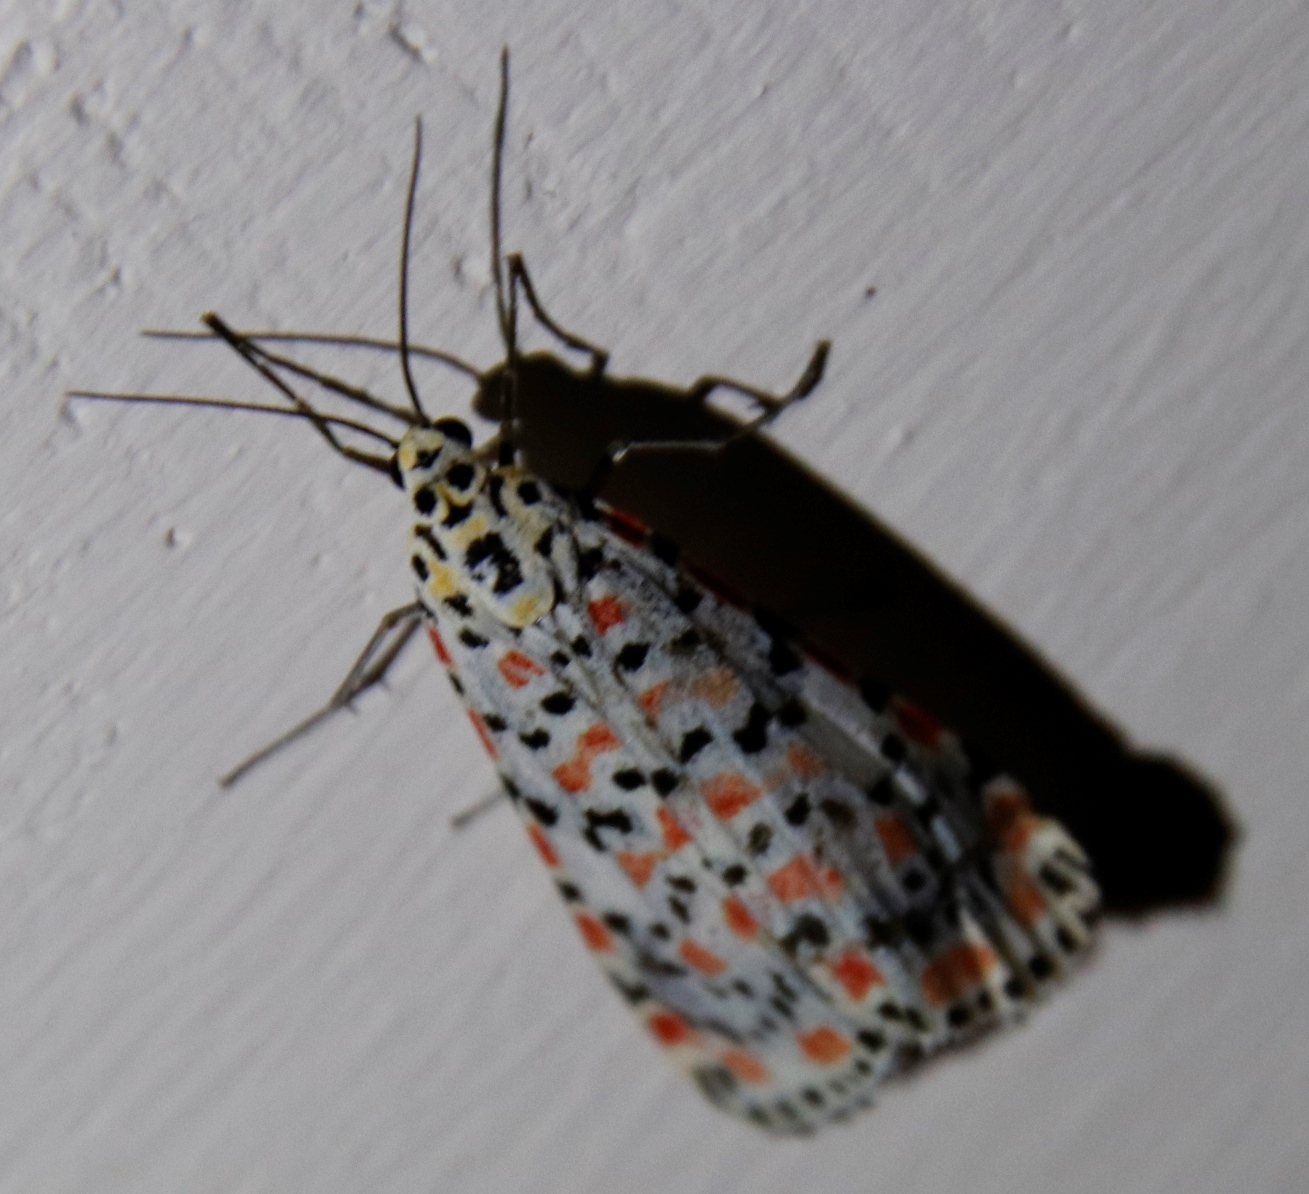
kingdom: Animalia
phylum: Arthropoda
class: Insecta
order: Lepidoptera
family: Erebidae
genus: Utetheisa
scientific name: Utetheisa pulchella
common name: Crimson speckled
